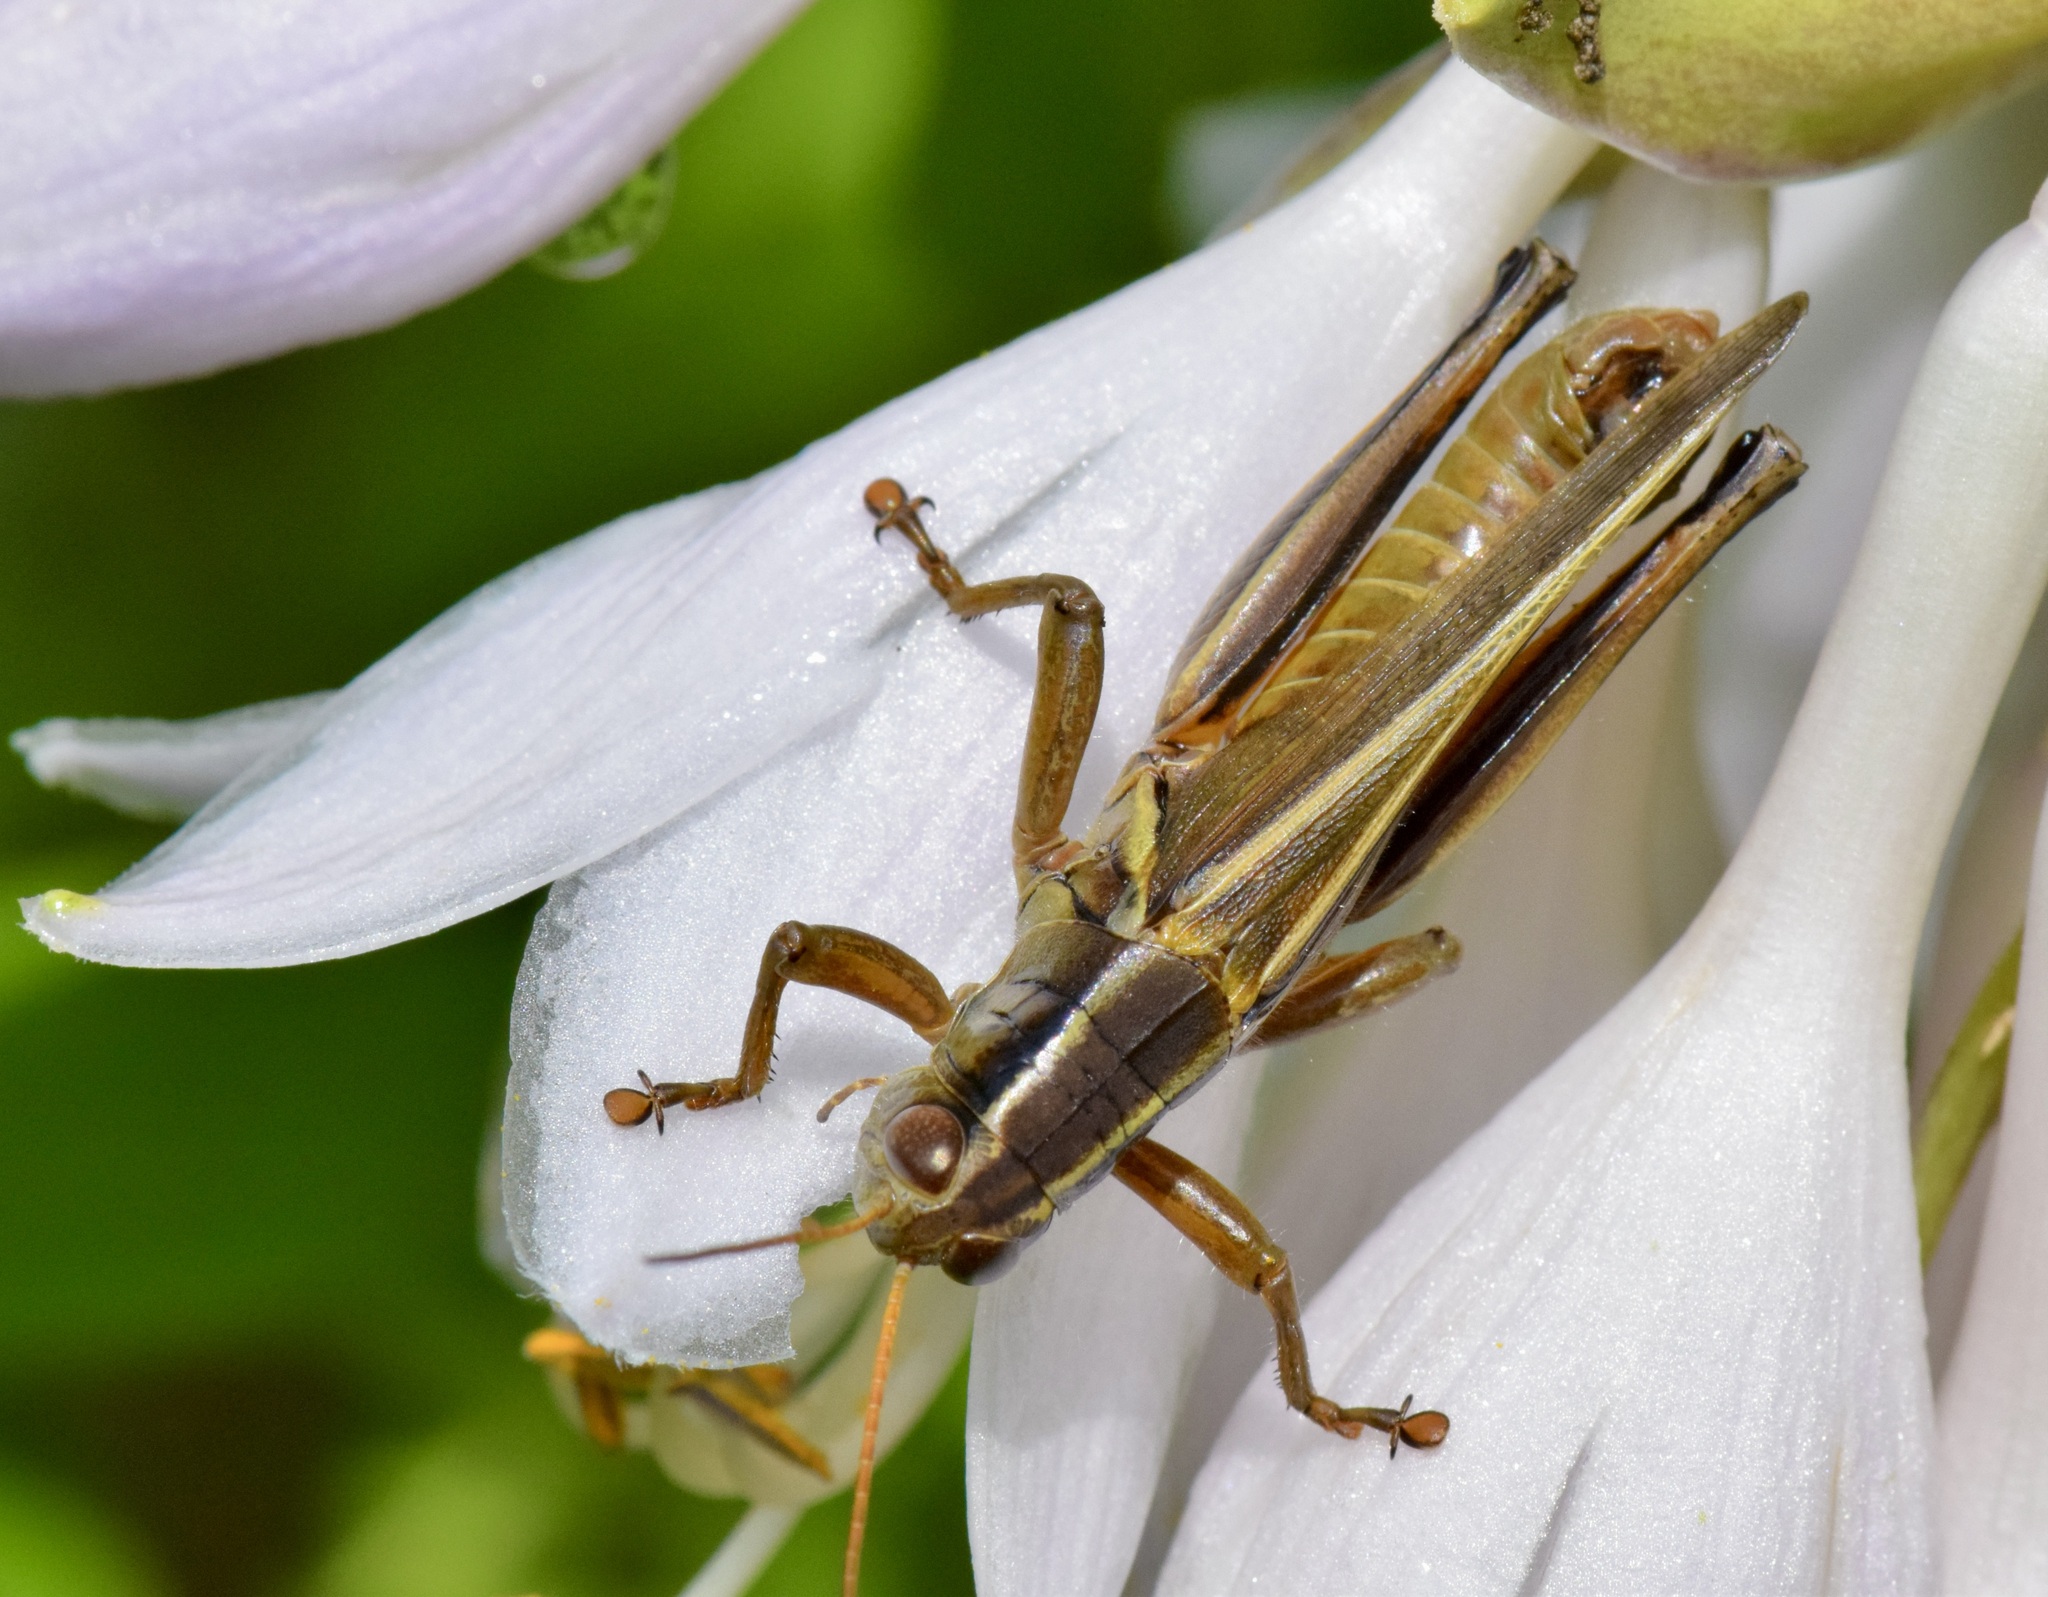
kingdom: Animalia
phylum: Arthropoda
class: Insecta
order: Orthoptera
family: Acrididae
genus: Melanoplus
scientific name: Melanoplus bivittatus
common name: Two-striped grasshopper
